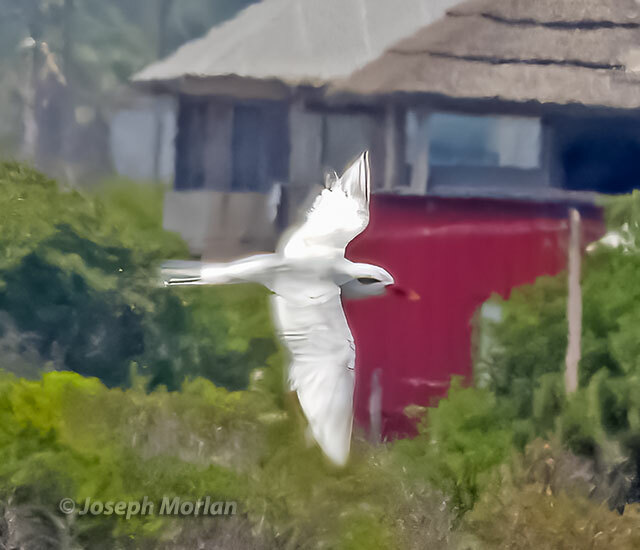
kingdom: Animalia
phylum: Chordata
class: Aves
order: Charadriiformes
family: Laridae
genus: Sterna
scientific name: Sterna trudeaui
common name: Snowy-crowned tern
